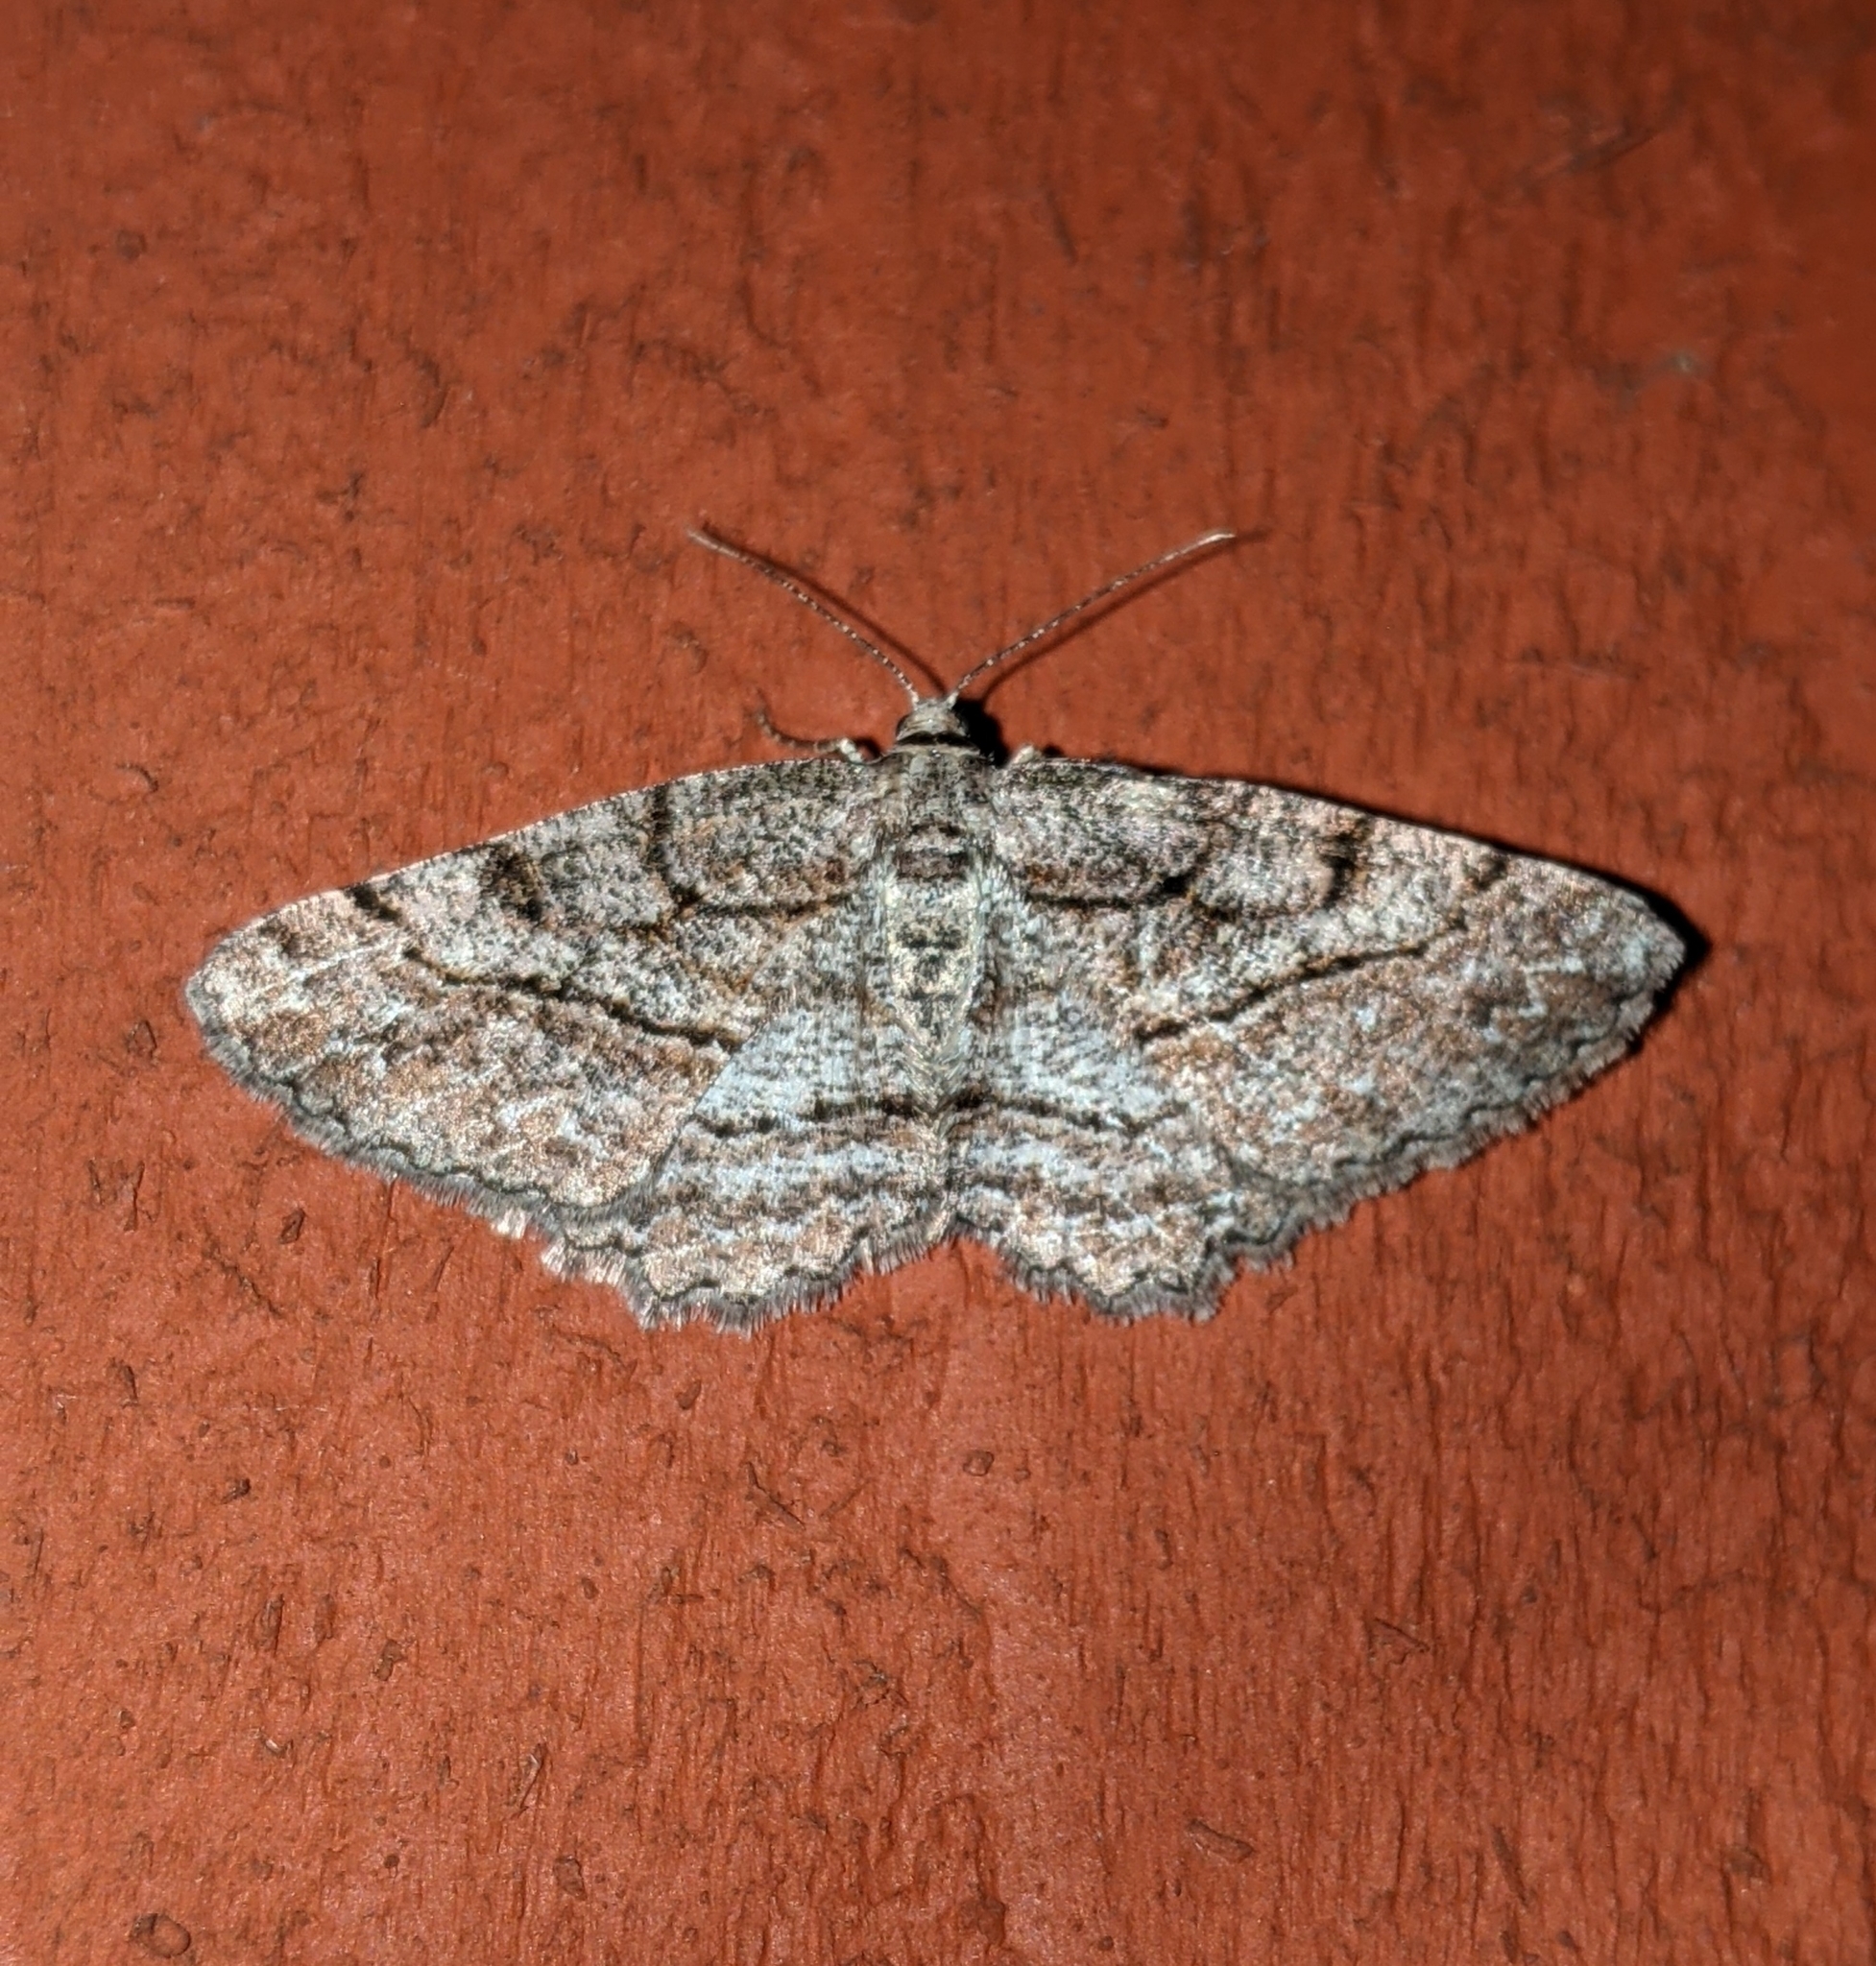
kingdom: Animalia
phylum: Arthropoda
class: Insecta
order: Lepidoptera
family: Geometridae
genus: Neoalcis
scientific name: Neoalcis californiaria
